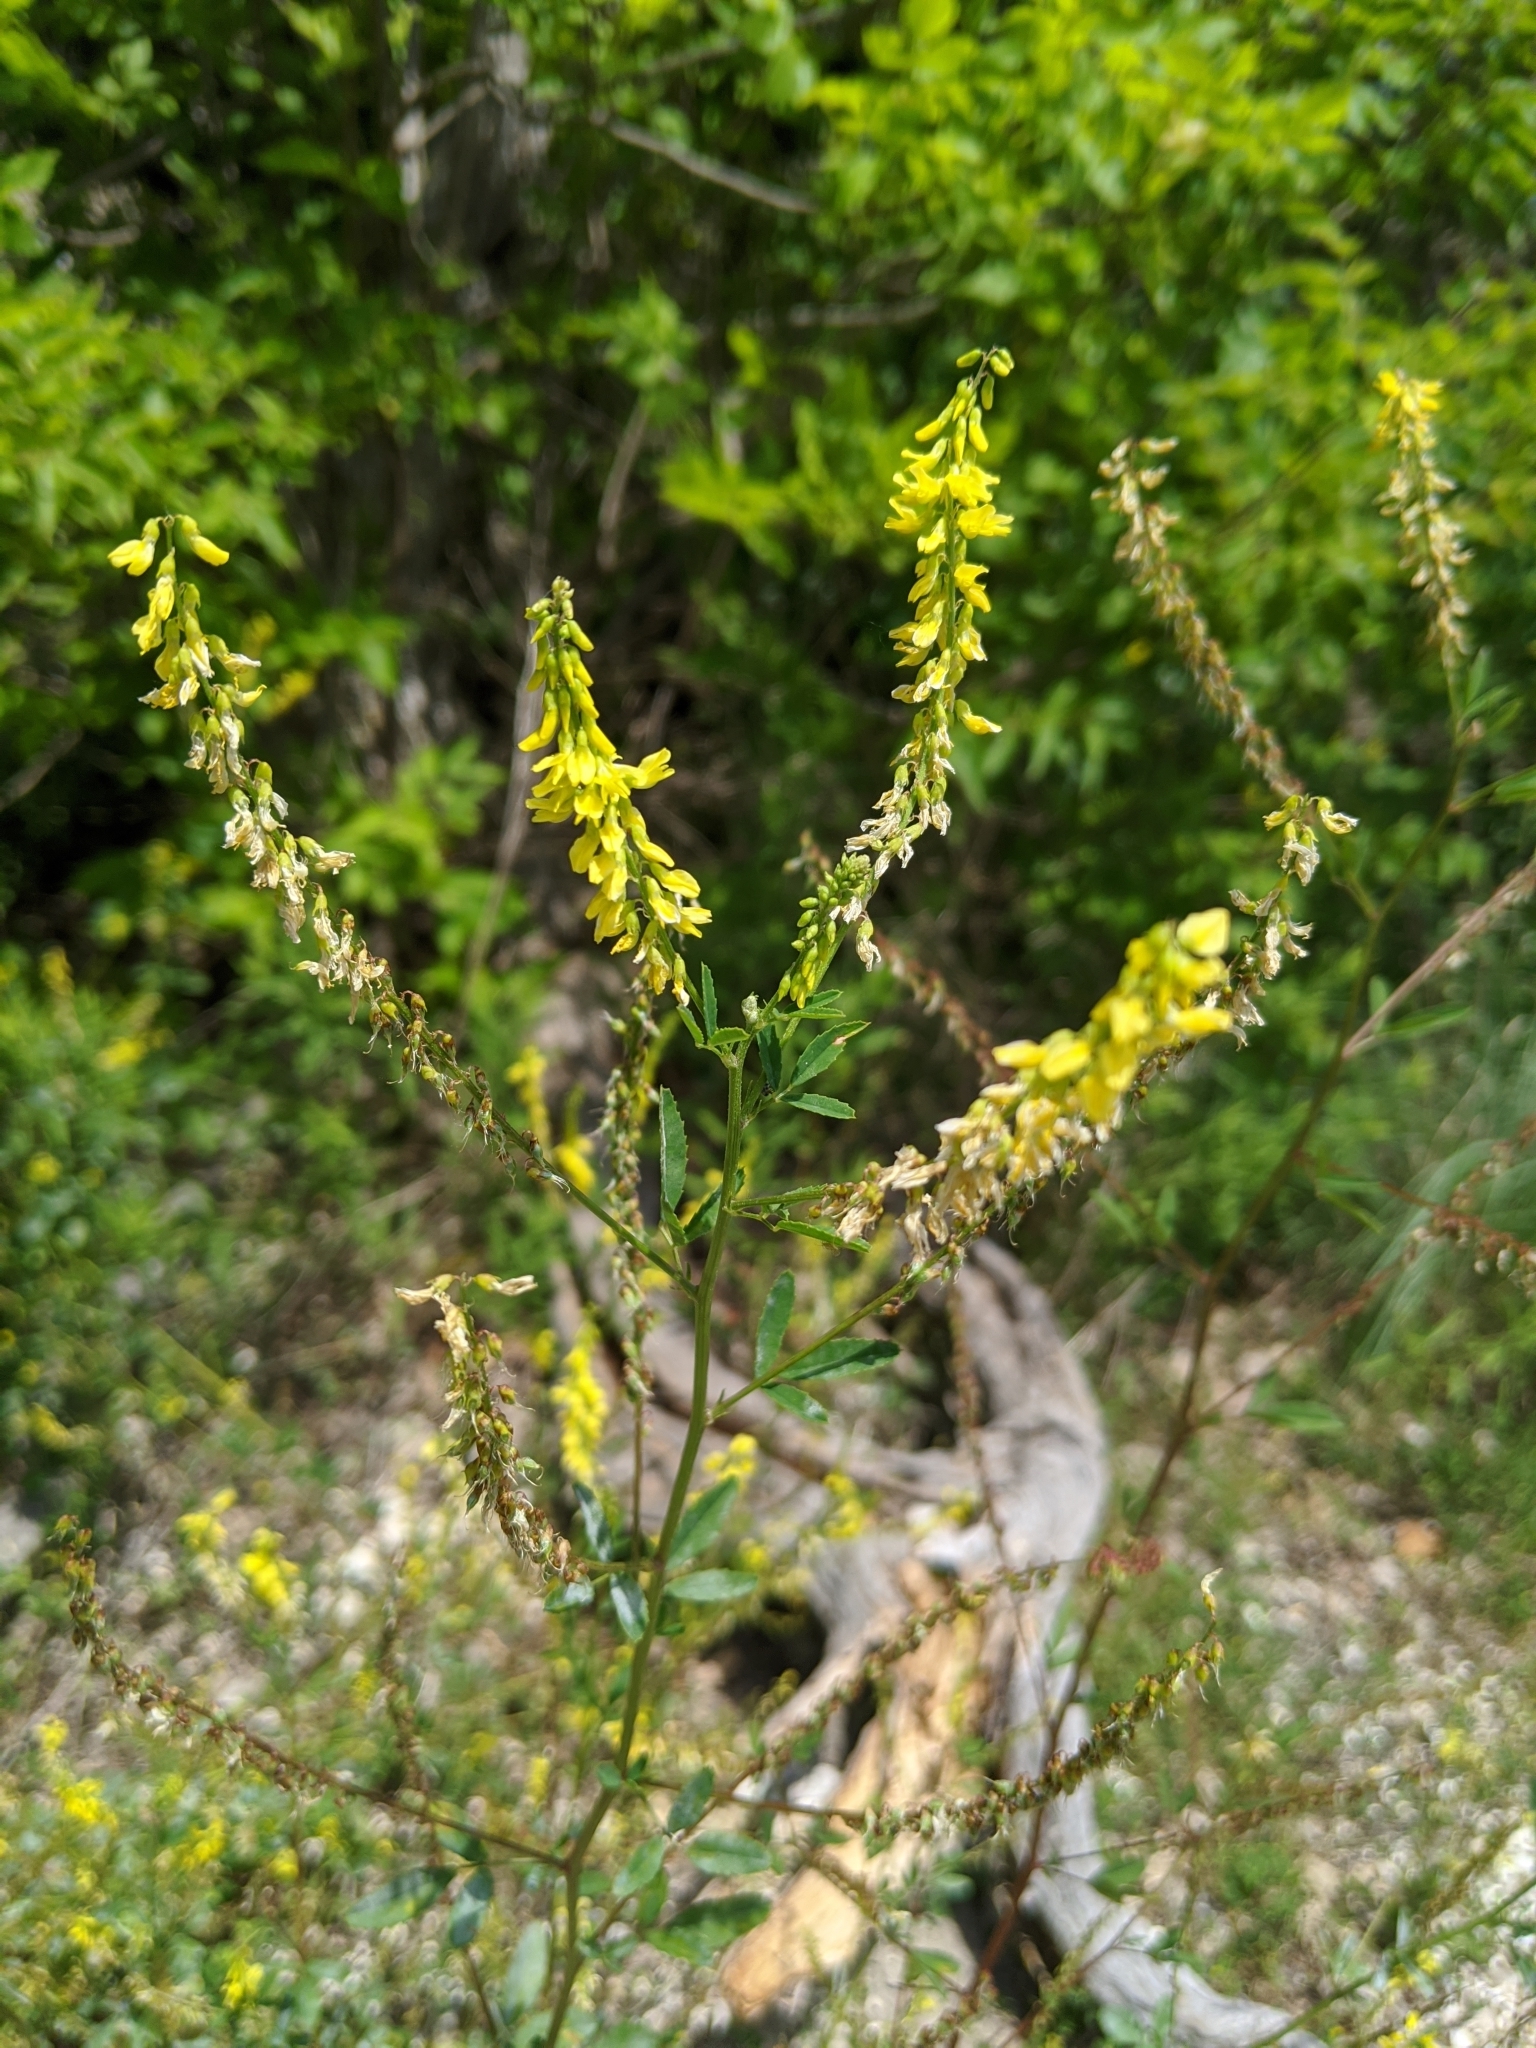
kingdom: Plantae
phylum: Tracheophyta
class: Magnoliopsida
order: Fabales
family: Fabaceae
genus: Melilotus
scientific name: Melilotus officinalis
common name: Sweetclover
